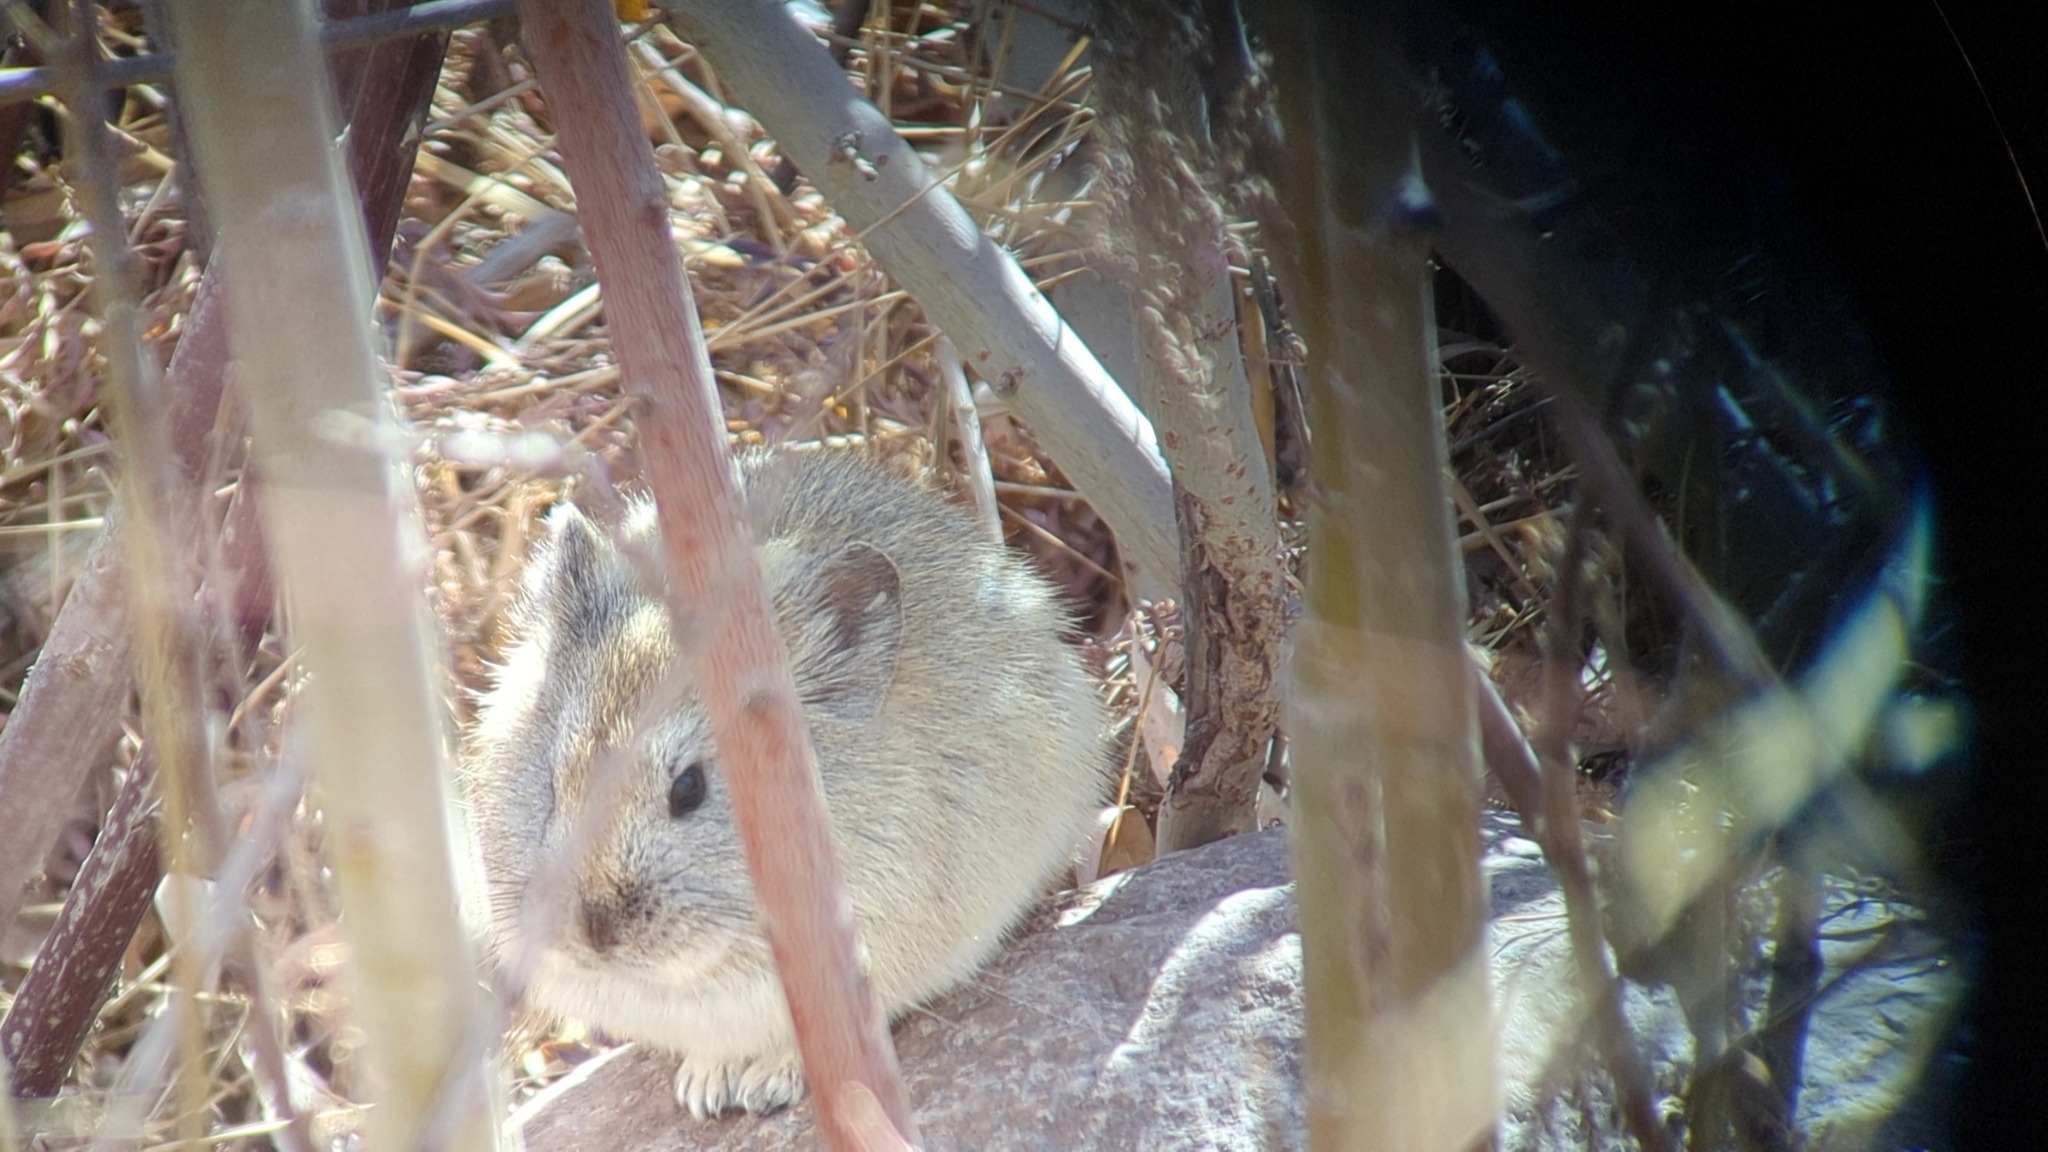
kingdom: Animalia
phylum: Chordata
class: Mammalia
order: Lagomorpha
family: Ochotonidae
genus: Ochotona
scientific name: Ochotona roylii
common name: Royle s pika
